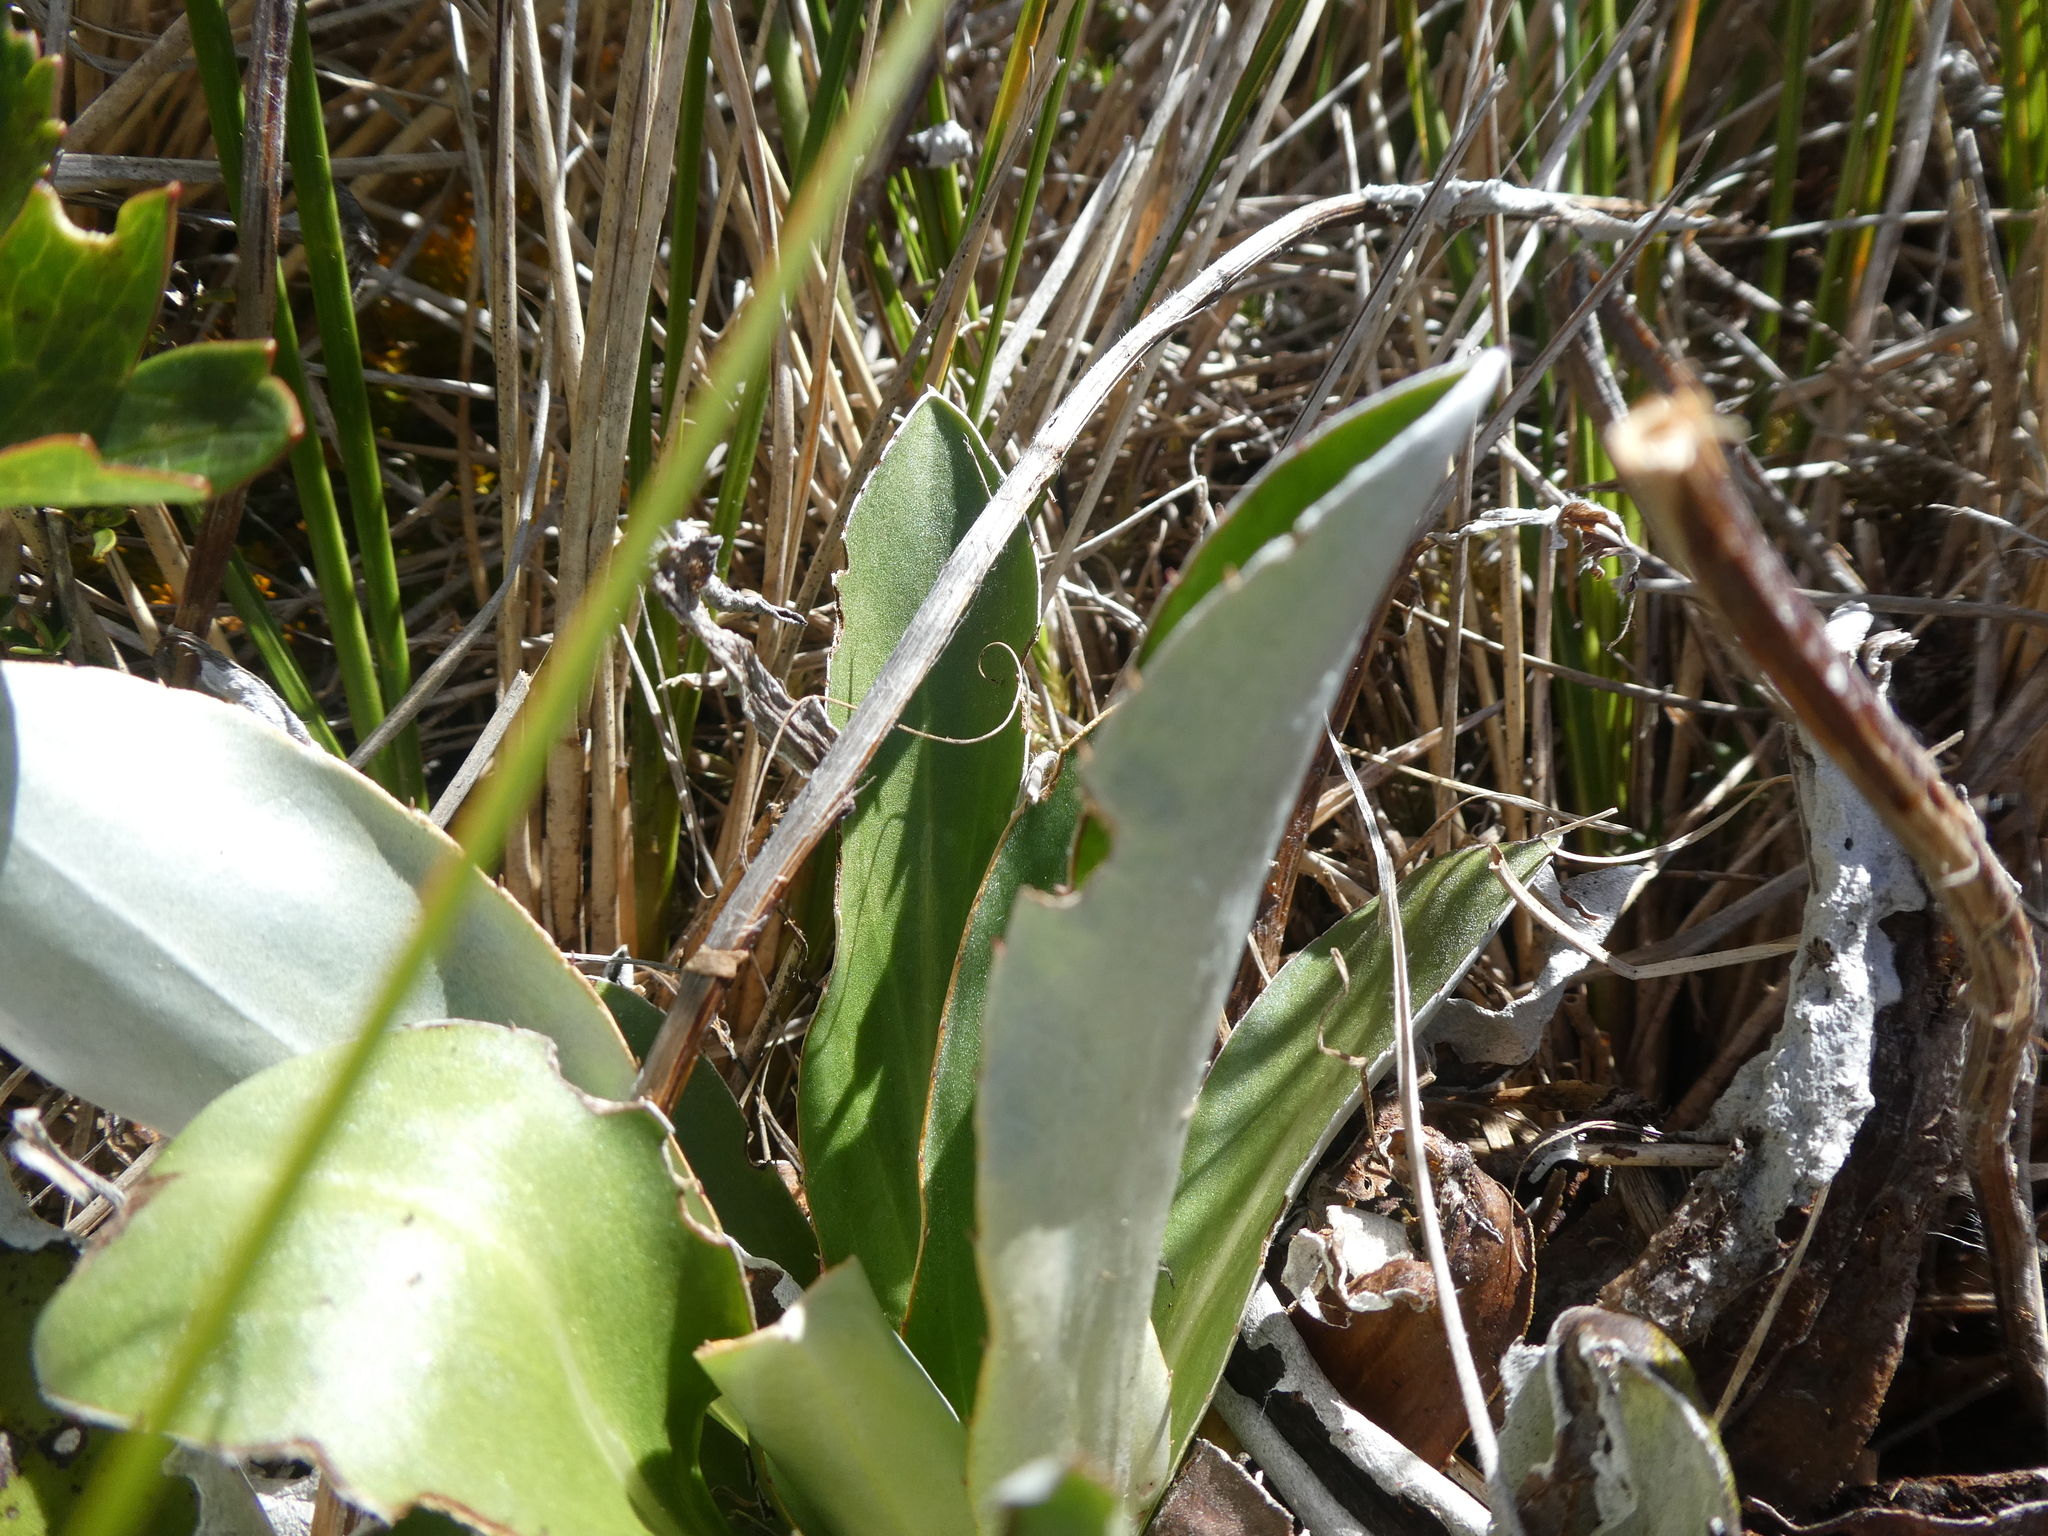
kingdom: Plantae
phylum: Tracheophyta
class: Magnoliopsida
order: Asterales
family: Asteraceae
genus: Celmisia
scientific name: Celmisia dallii
